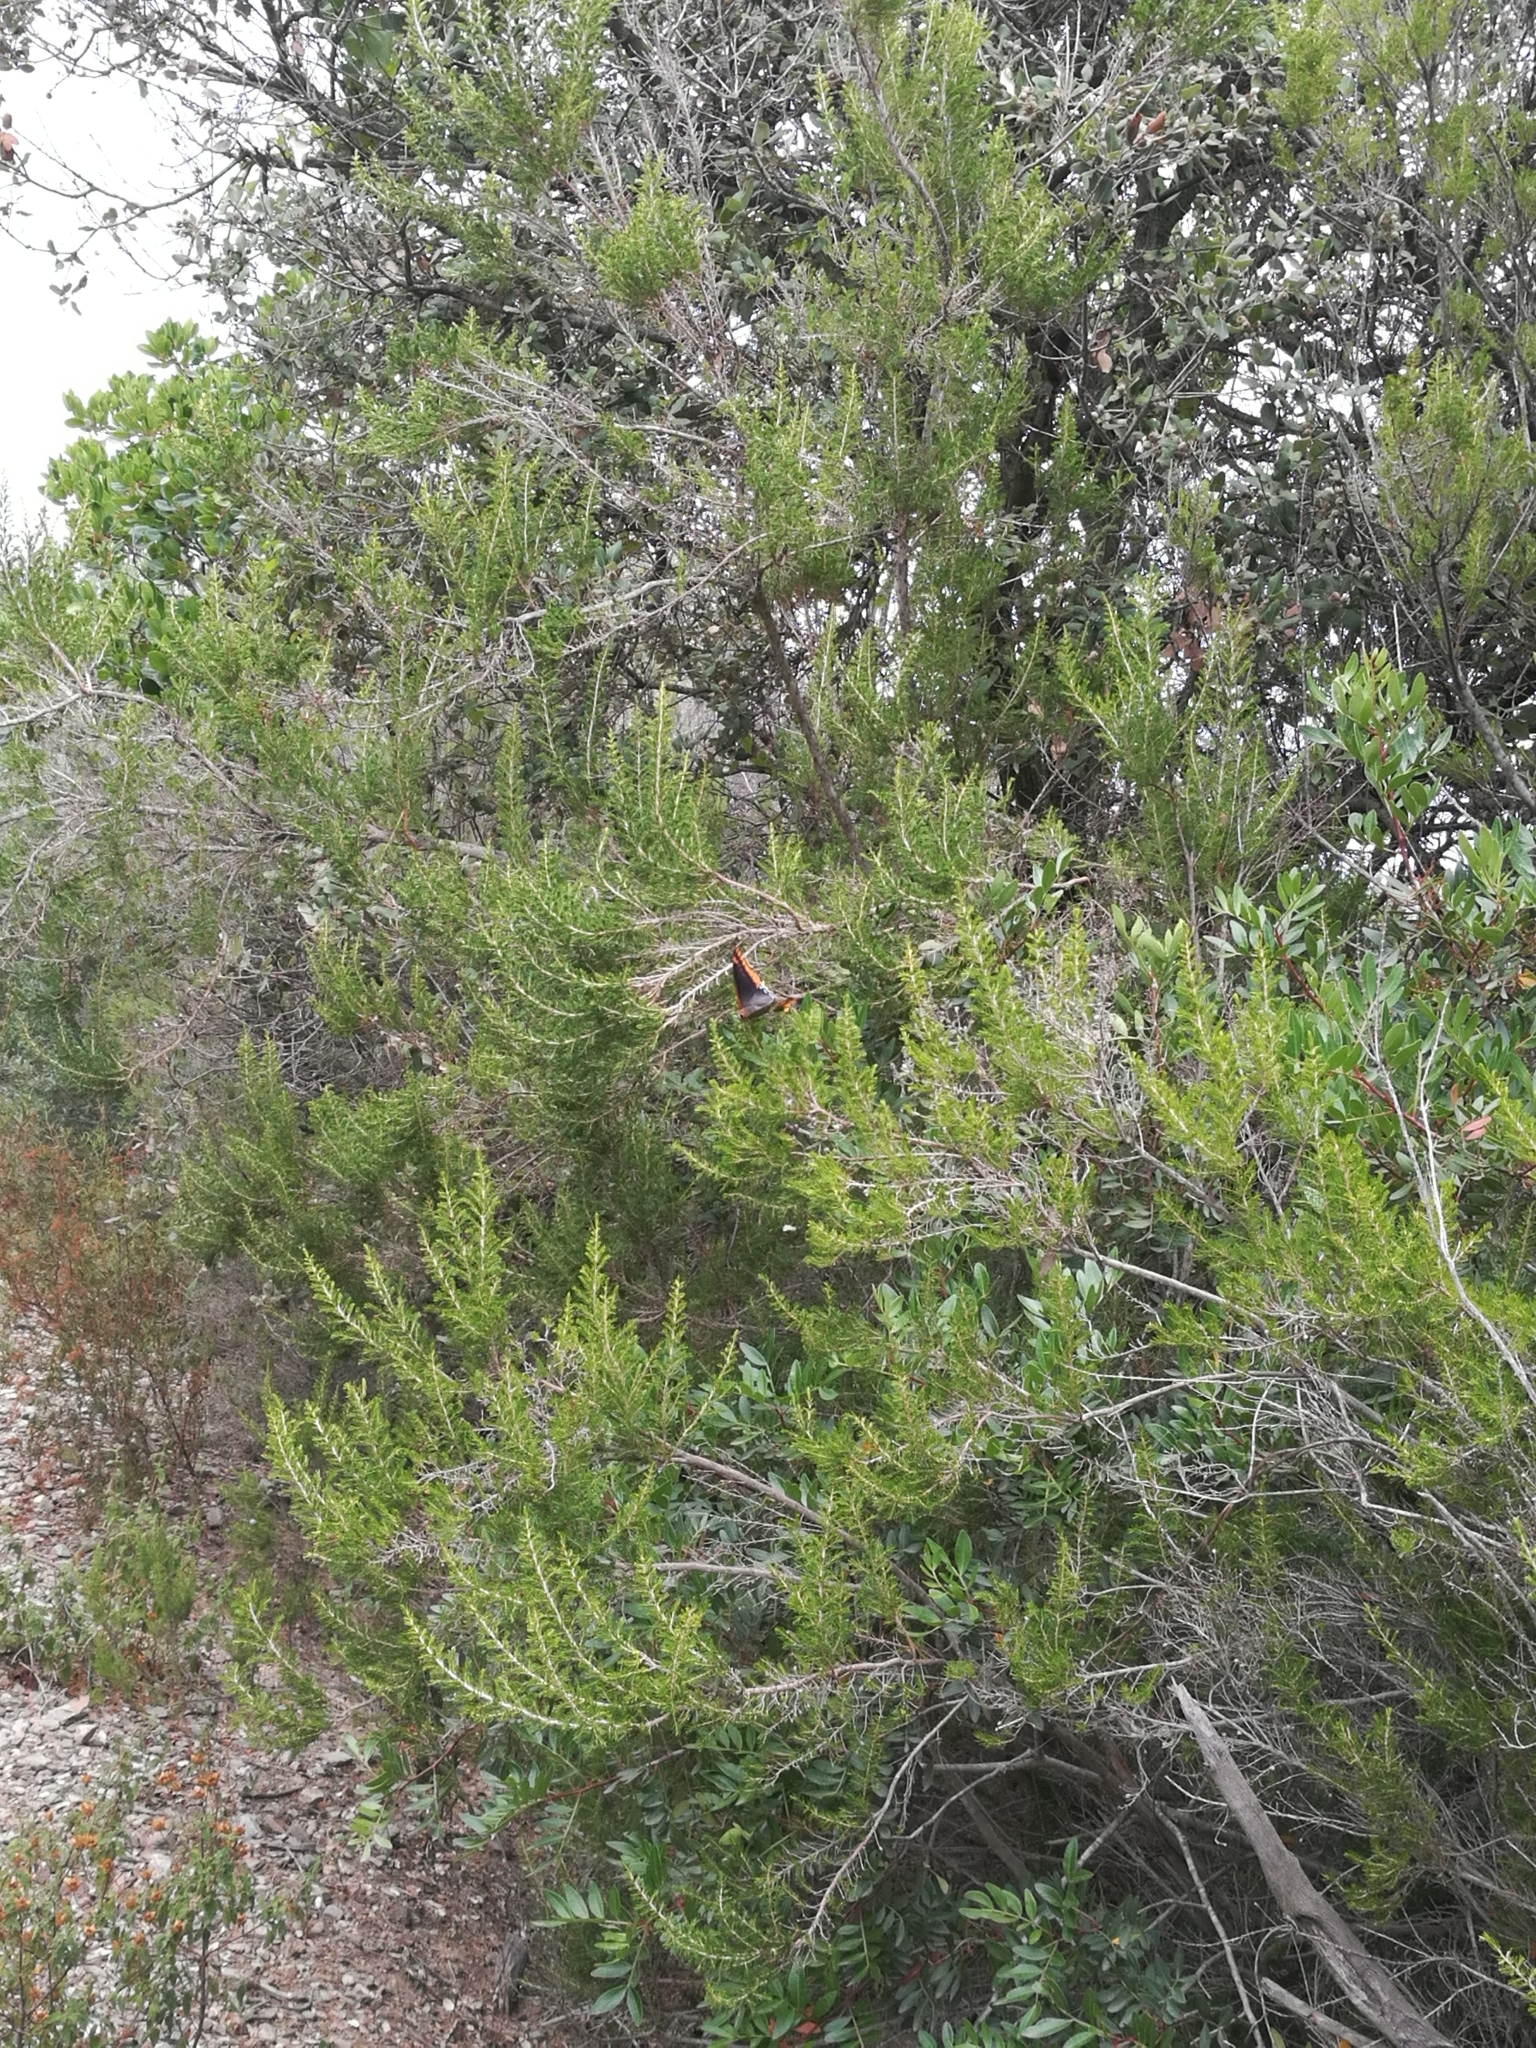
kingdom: Animalia
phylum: Arthropoda
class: Insecta
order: Lepidoptera
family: Nymphalidae
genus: Charaxes
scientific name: Charaxes jasius
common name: Two tailed pasha
